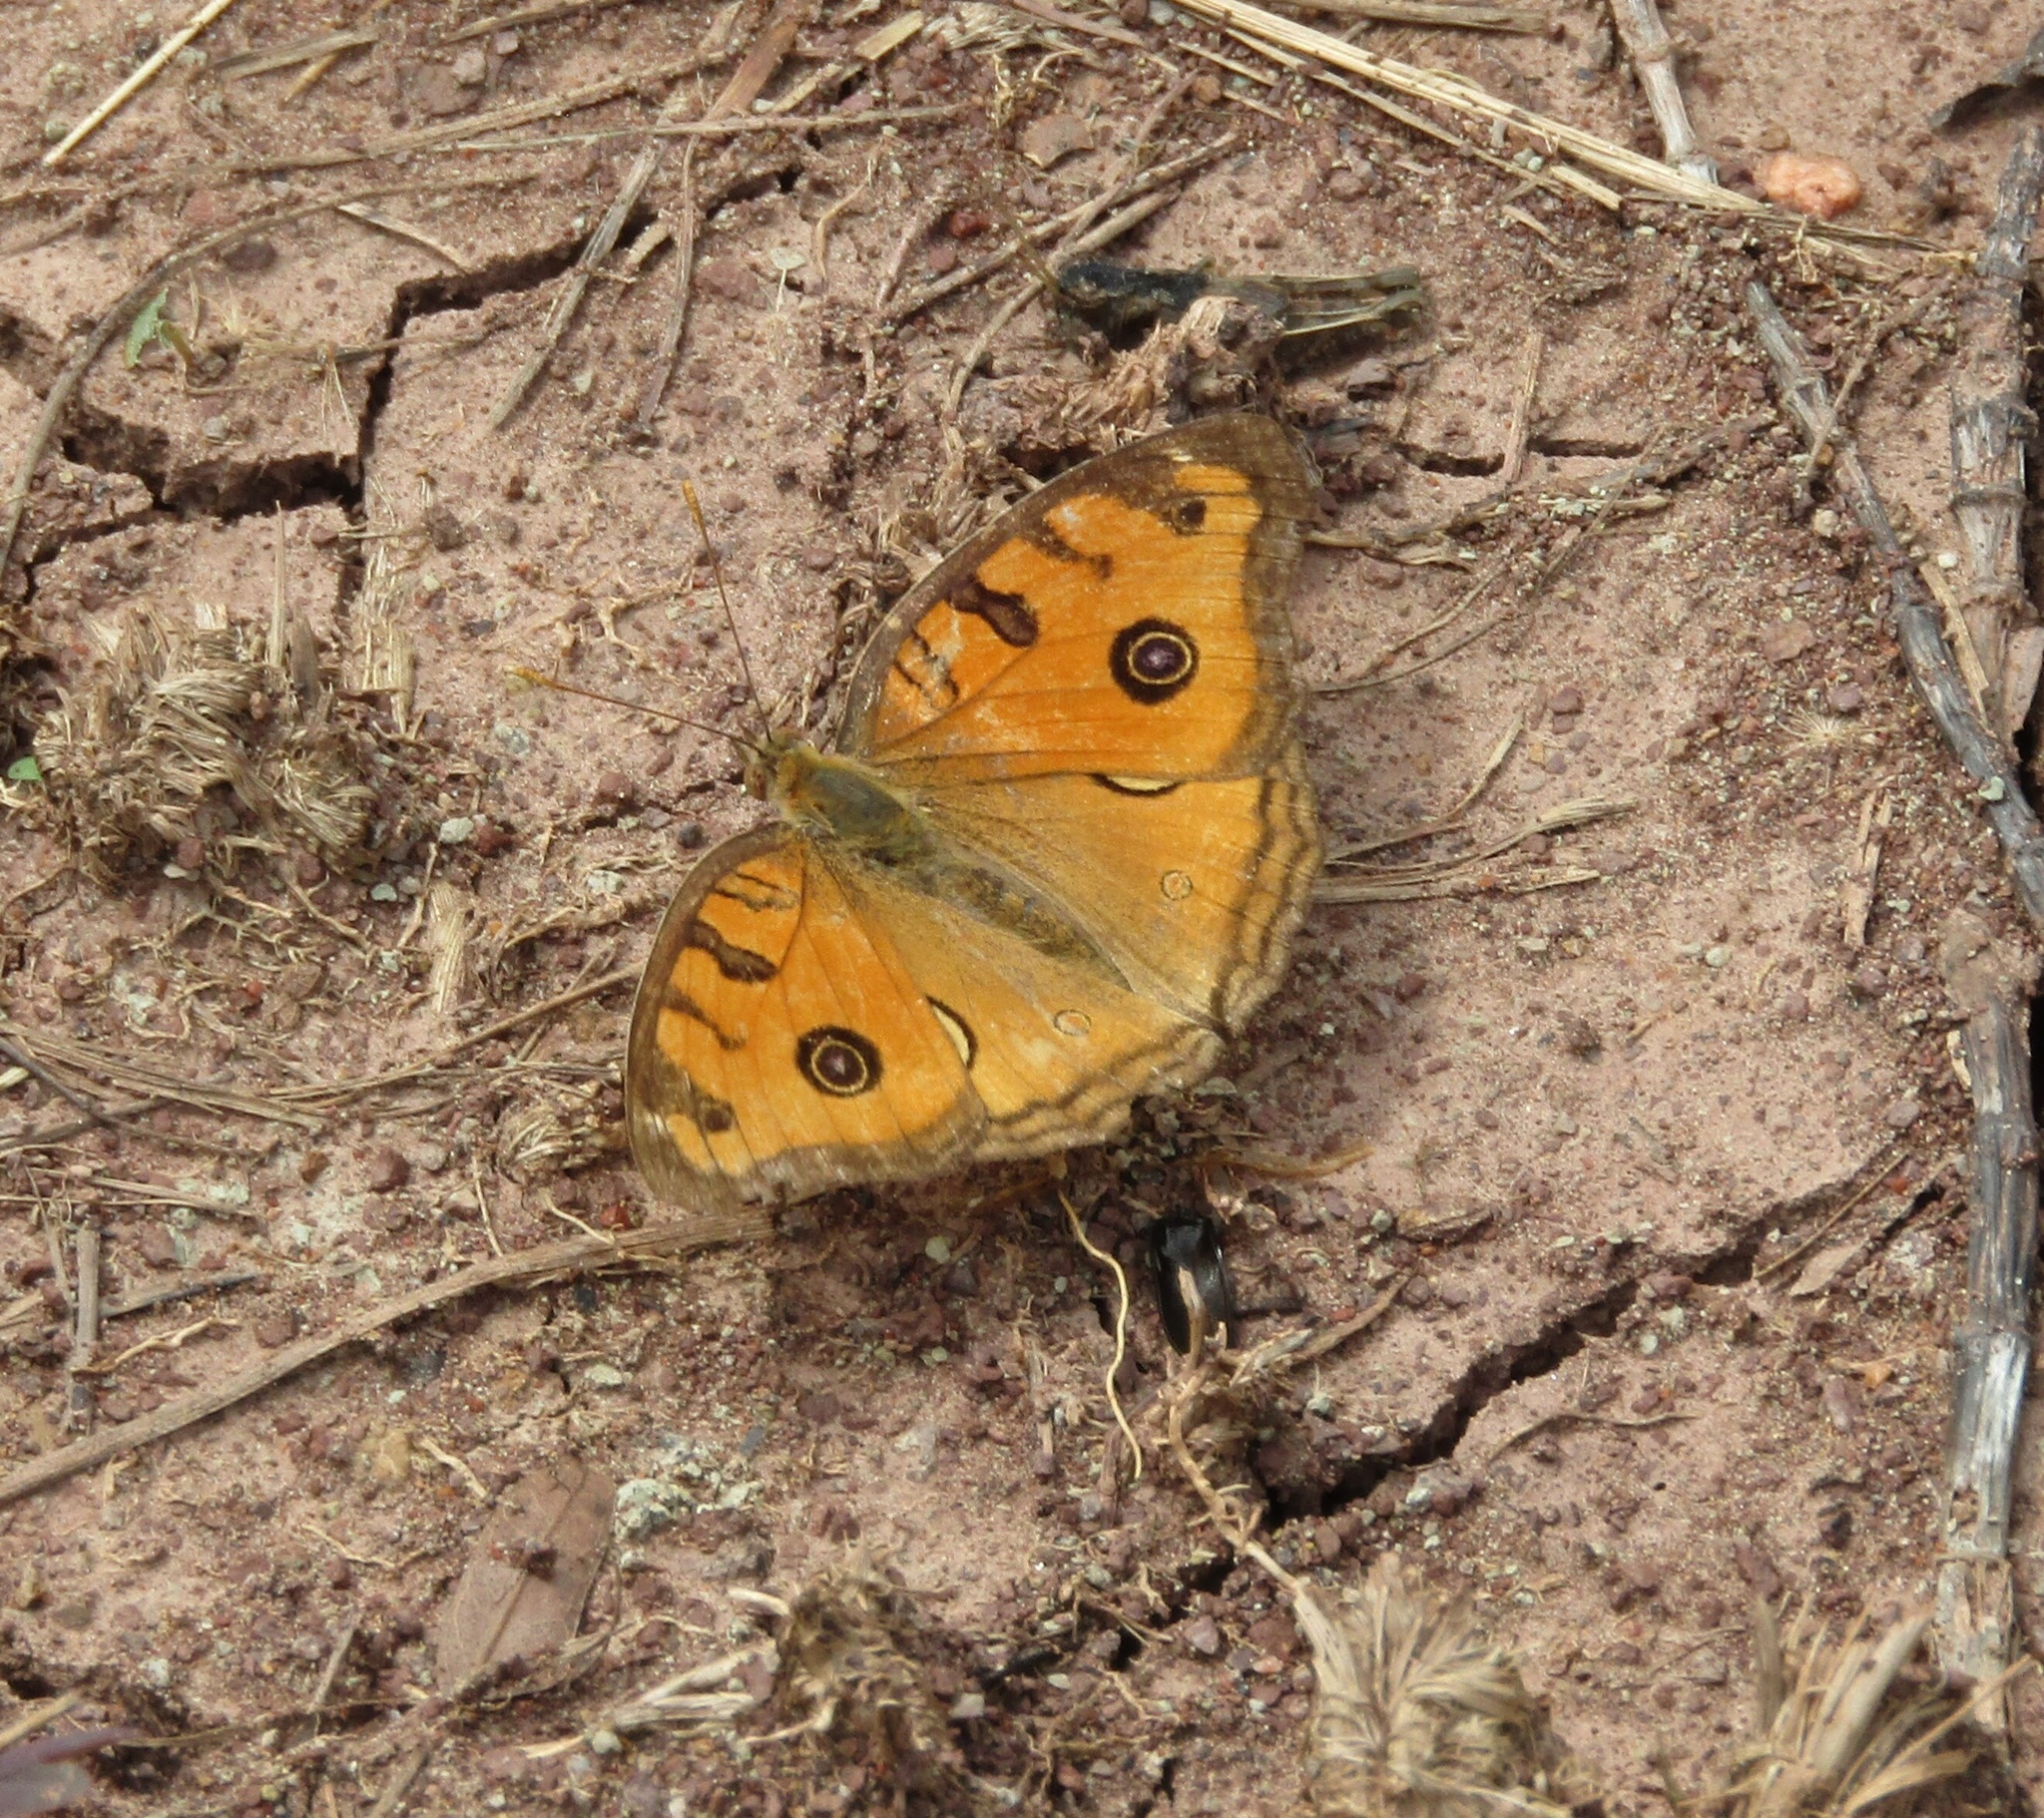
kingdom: Animalia
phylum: Arthropoda
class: Insecta
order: Lepidoptera
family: Nymphalidae
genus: Junonia
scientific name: Junonia almana
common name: Peacock pansy
